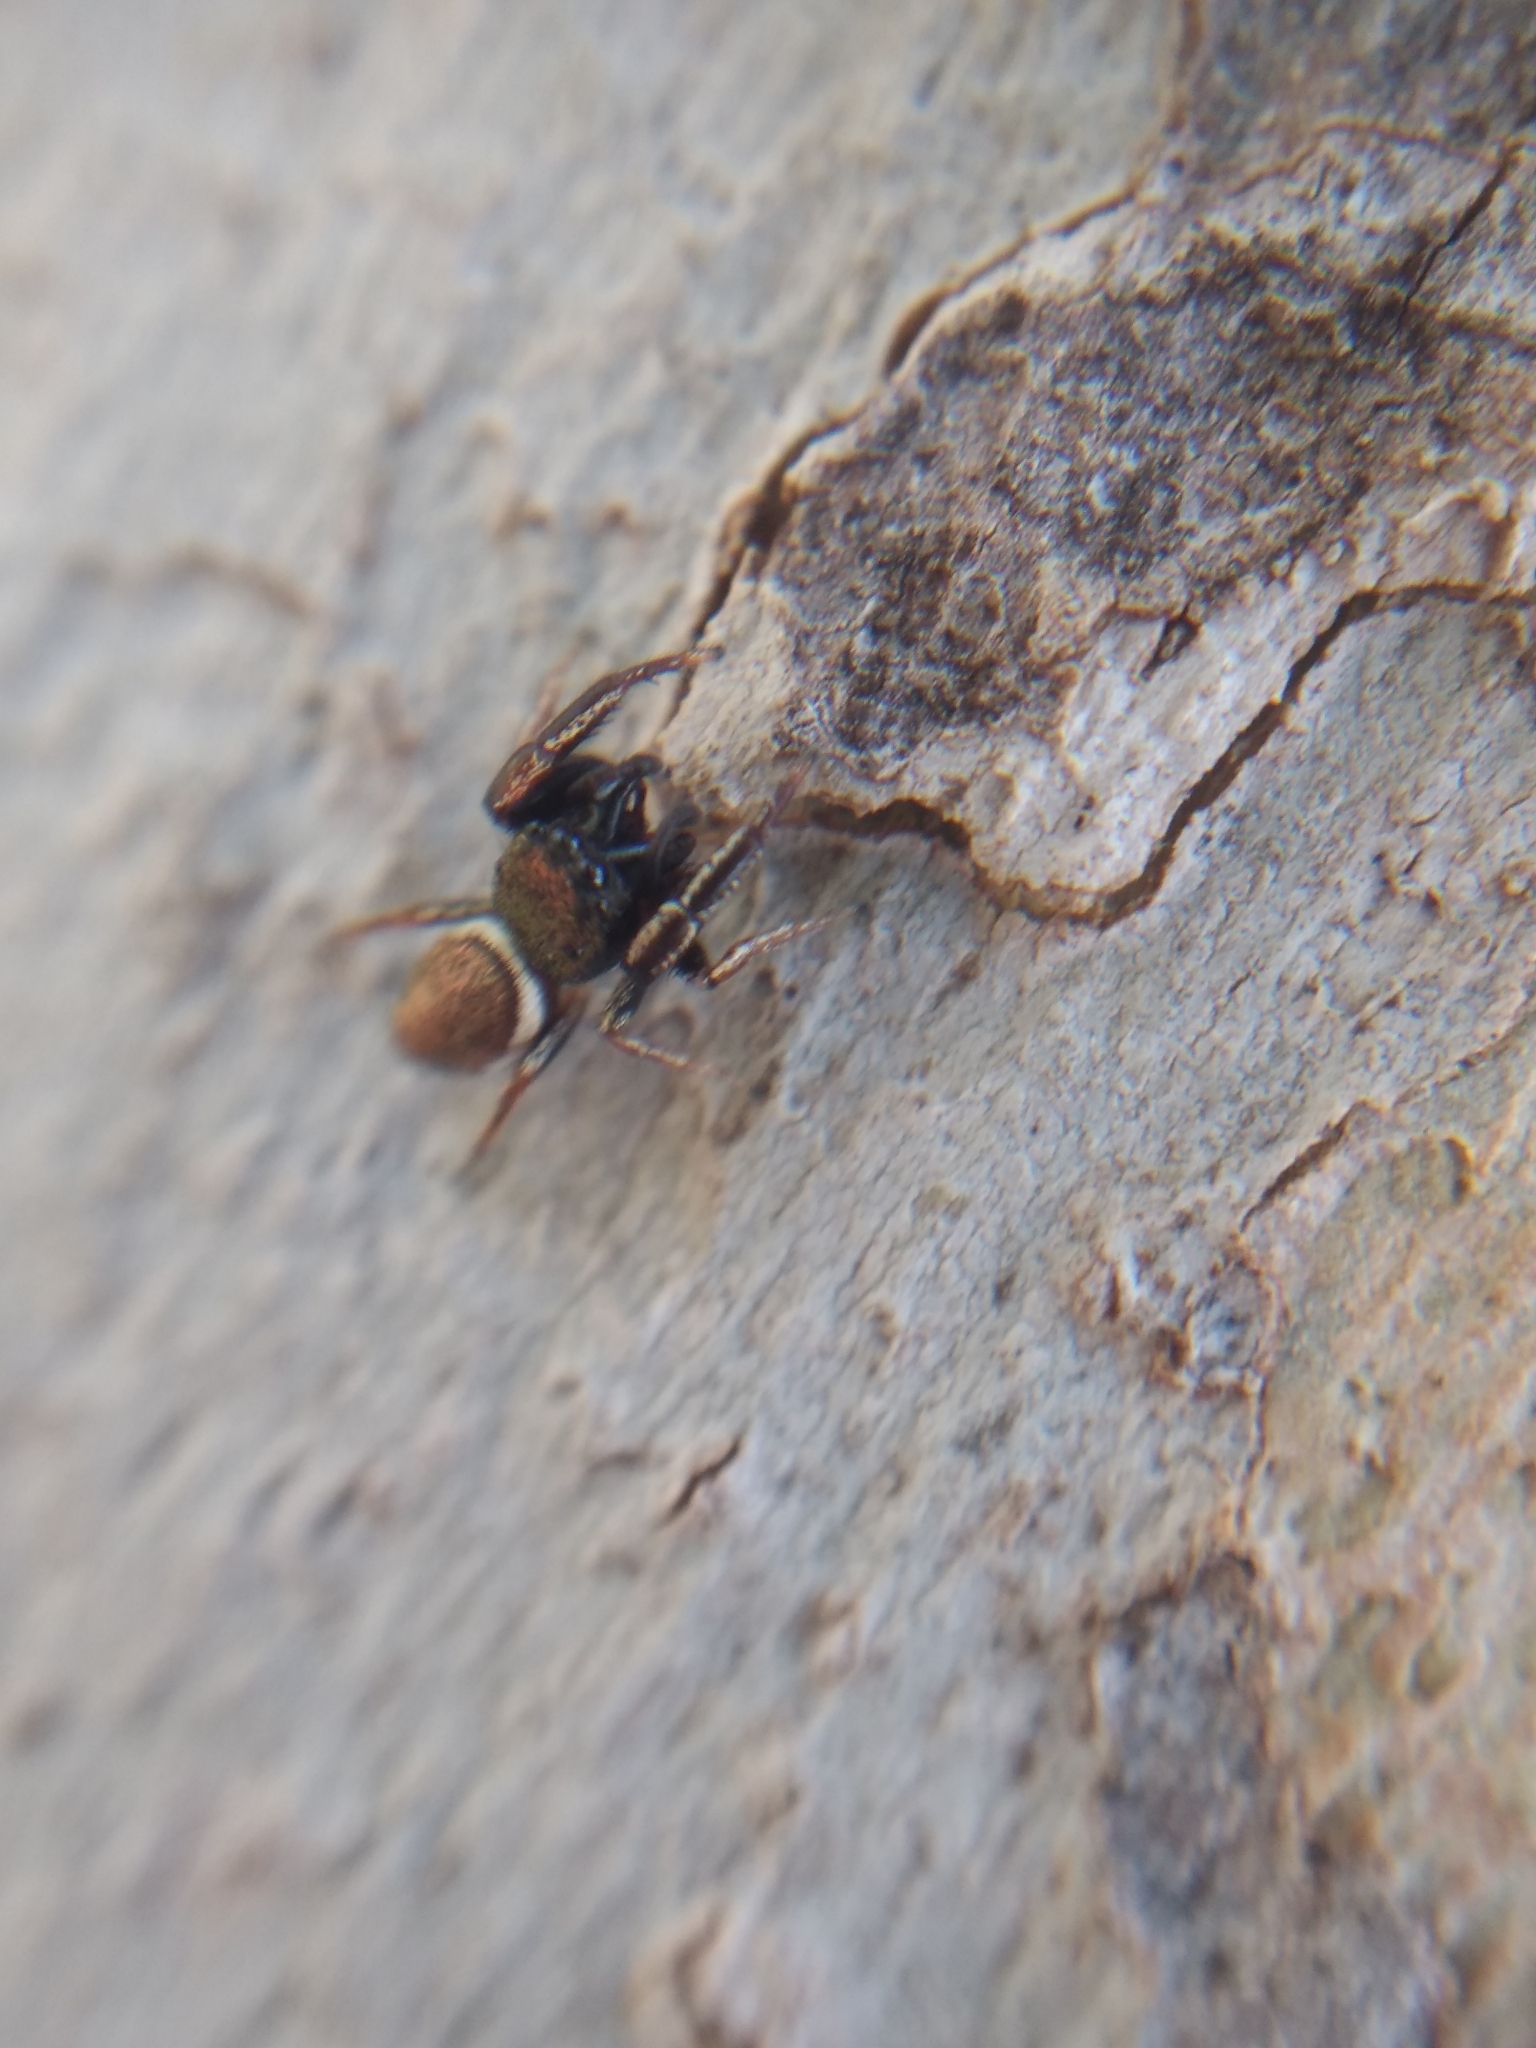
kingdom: Animalia
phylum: Arthropoda
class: Arachnida
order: Araneae
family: Salticidae
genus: Sassacus
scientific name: Sassacus vitis
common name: Jumping spiders
